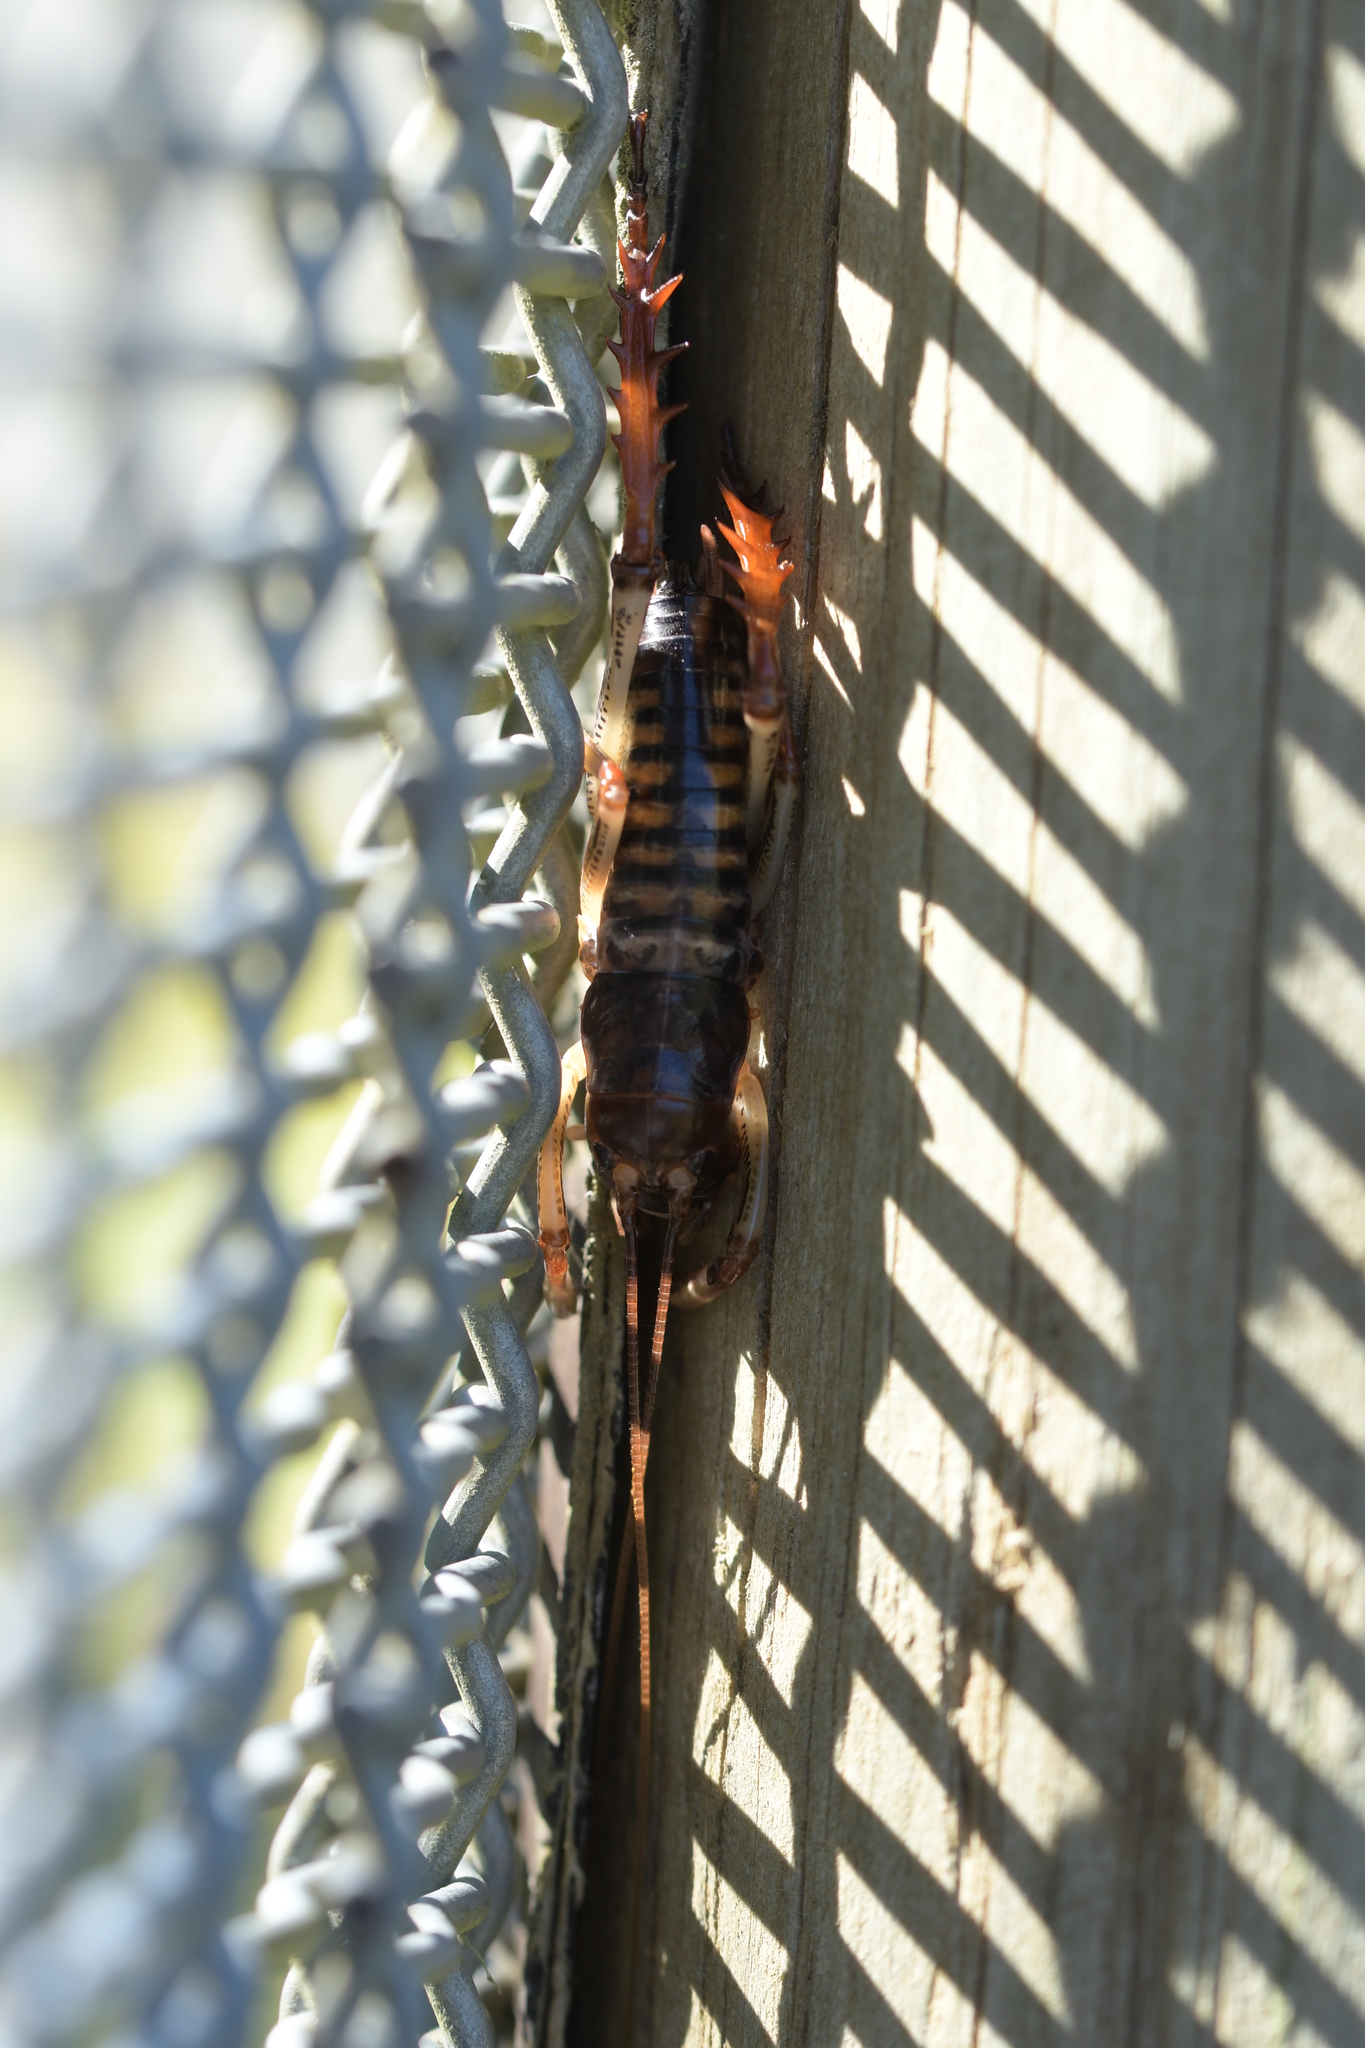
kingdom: Animalia
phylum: Arthropoda
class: Insecta
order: Orthoptera
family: Anostostomatidae
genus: Hemideina
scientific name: Hemideina crassidens
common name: Wellington tree weta
